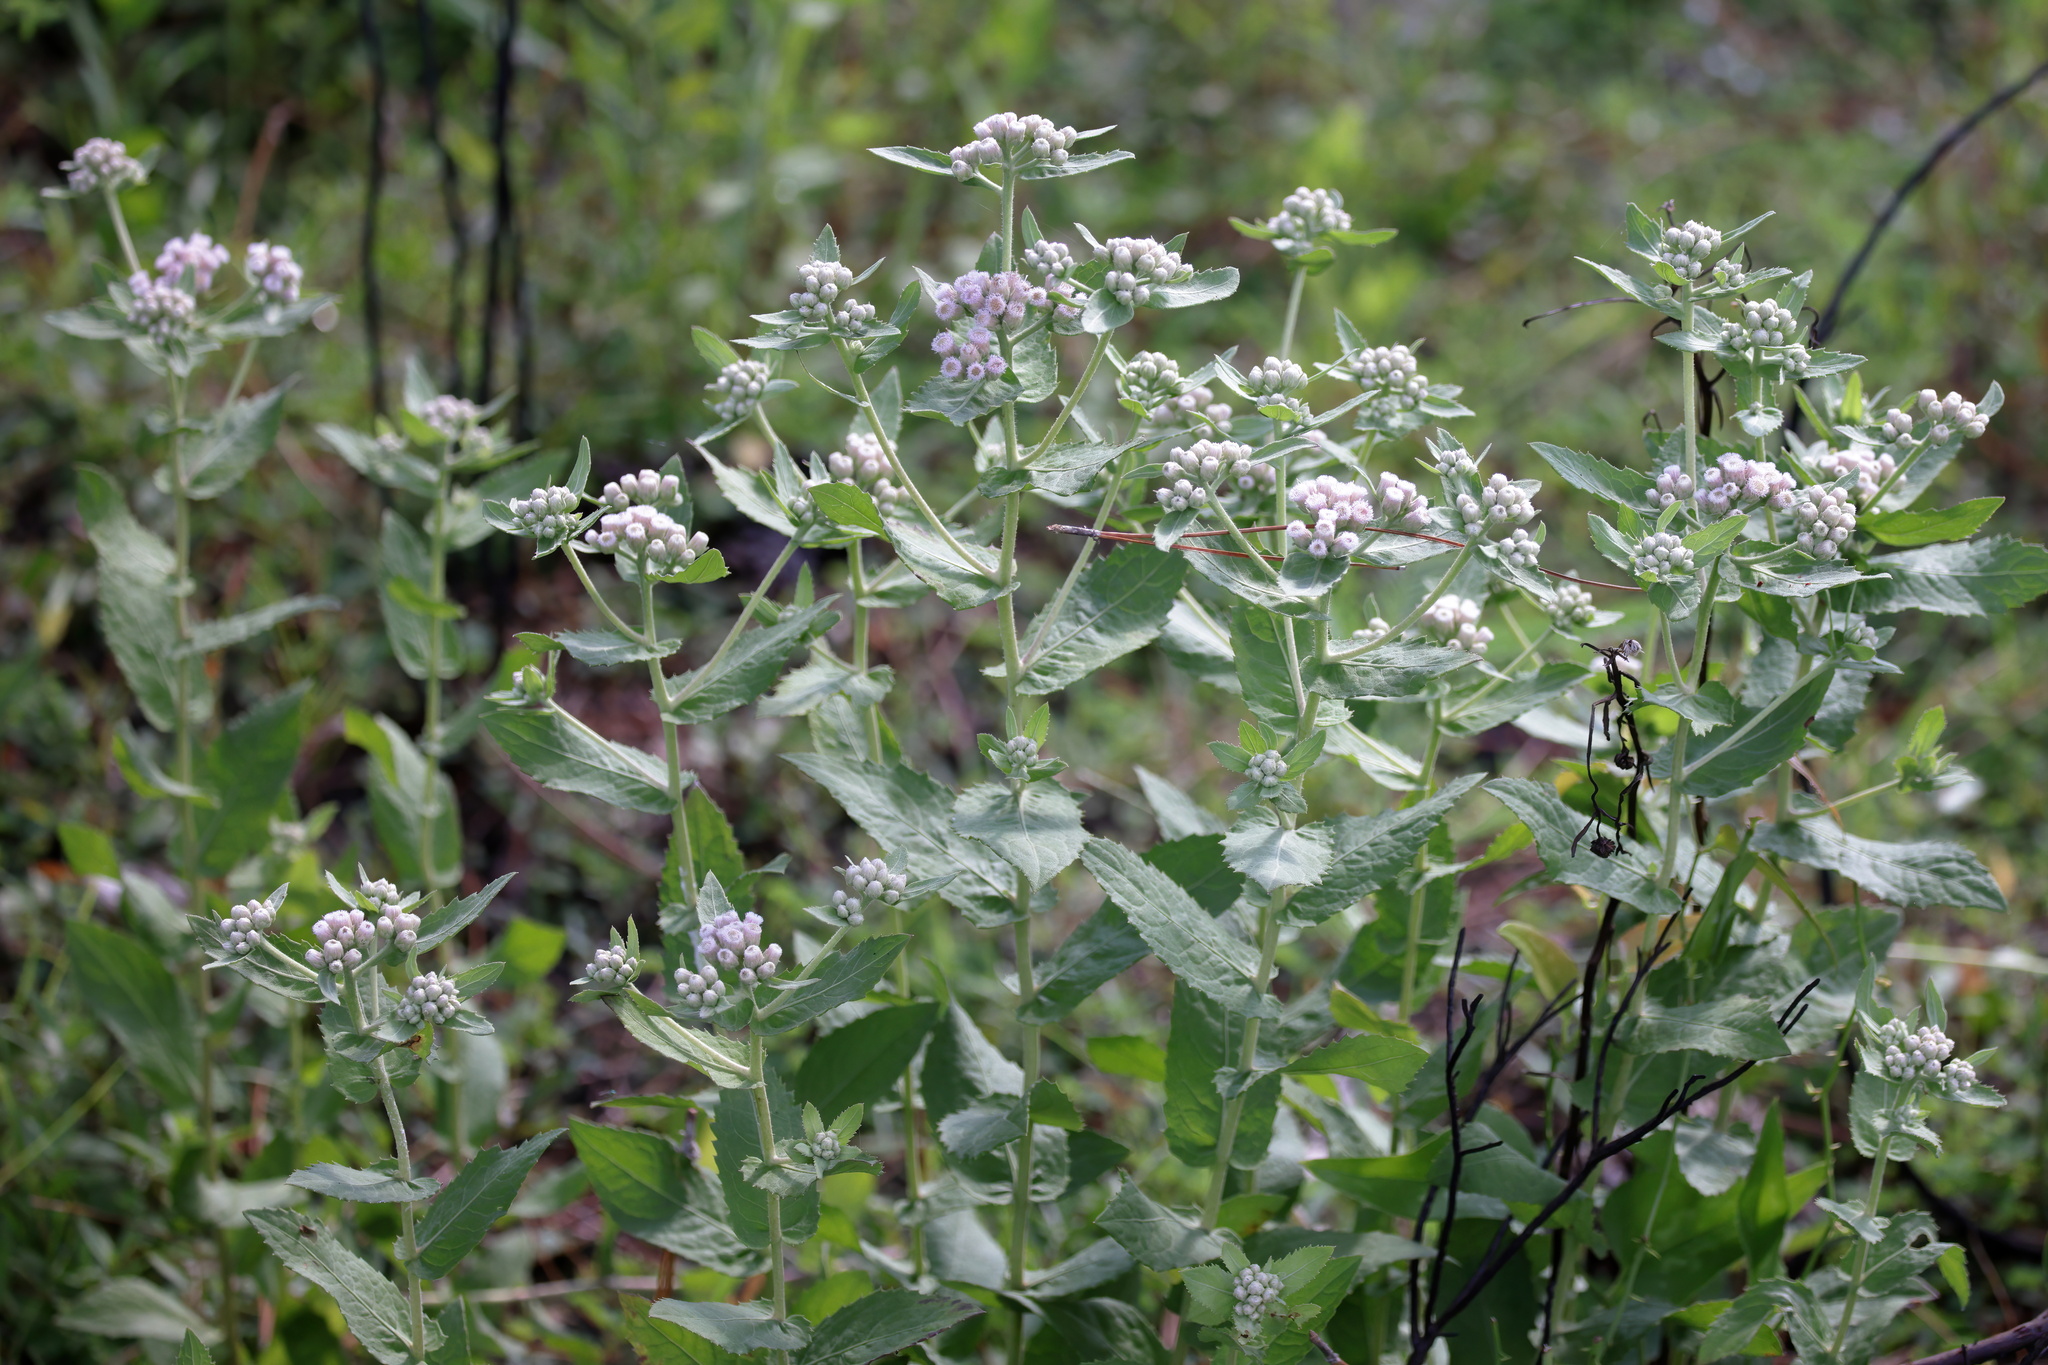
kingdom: Plantae
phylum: Tracheophyta
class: Magnoliopsida
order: Asterales
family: Asteraceae
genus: Pluchea
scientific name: Pluchea baccharis
